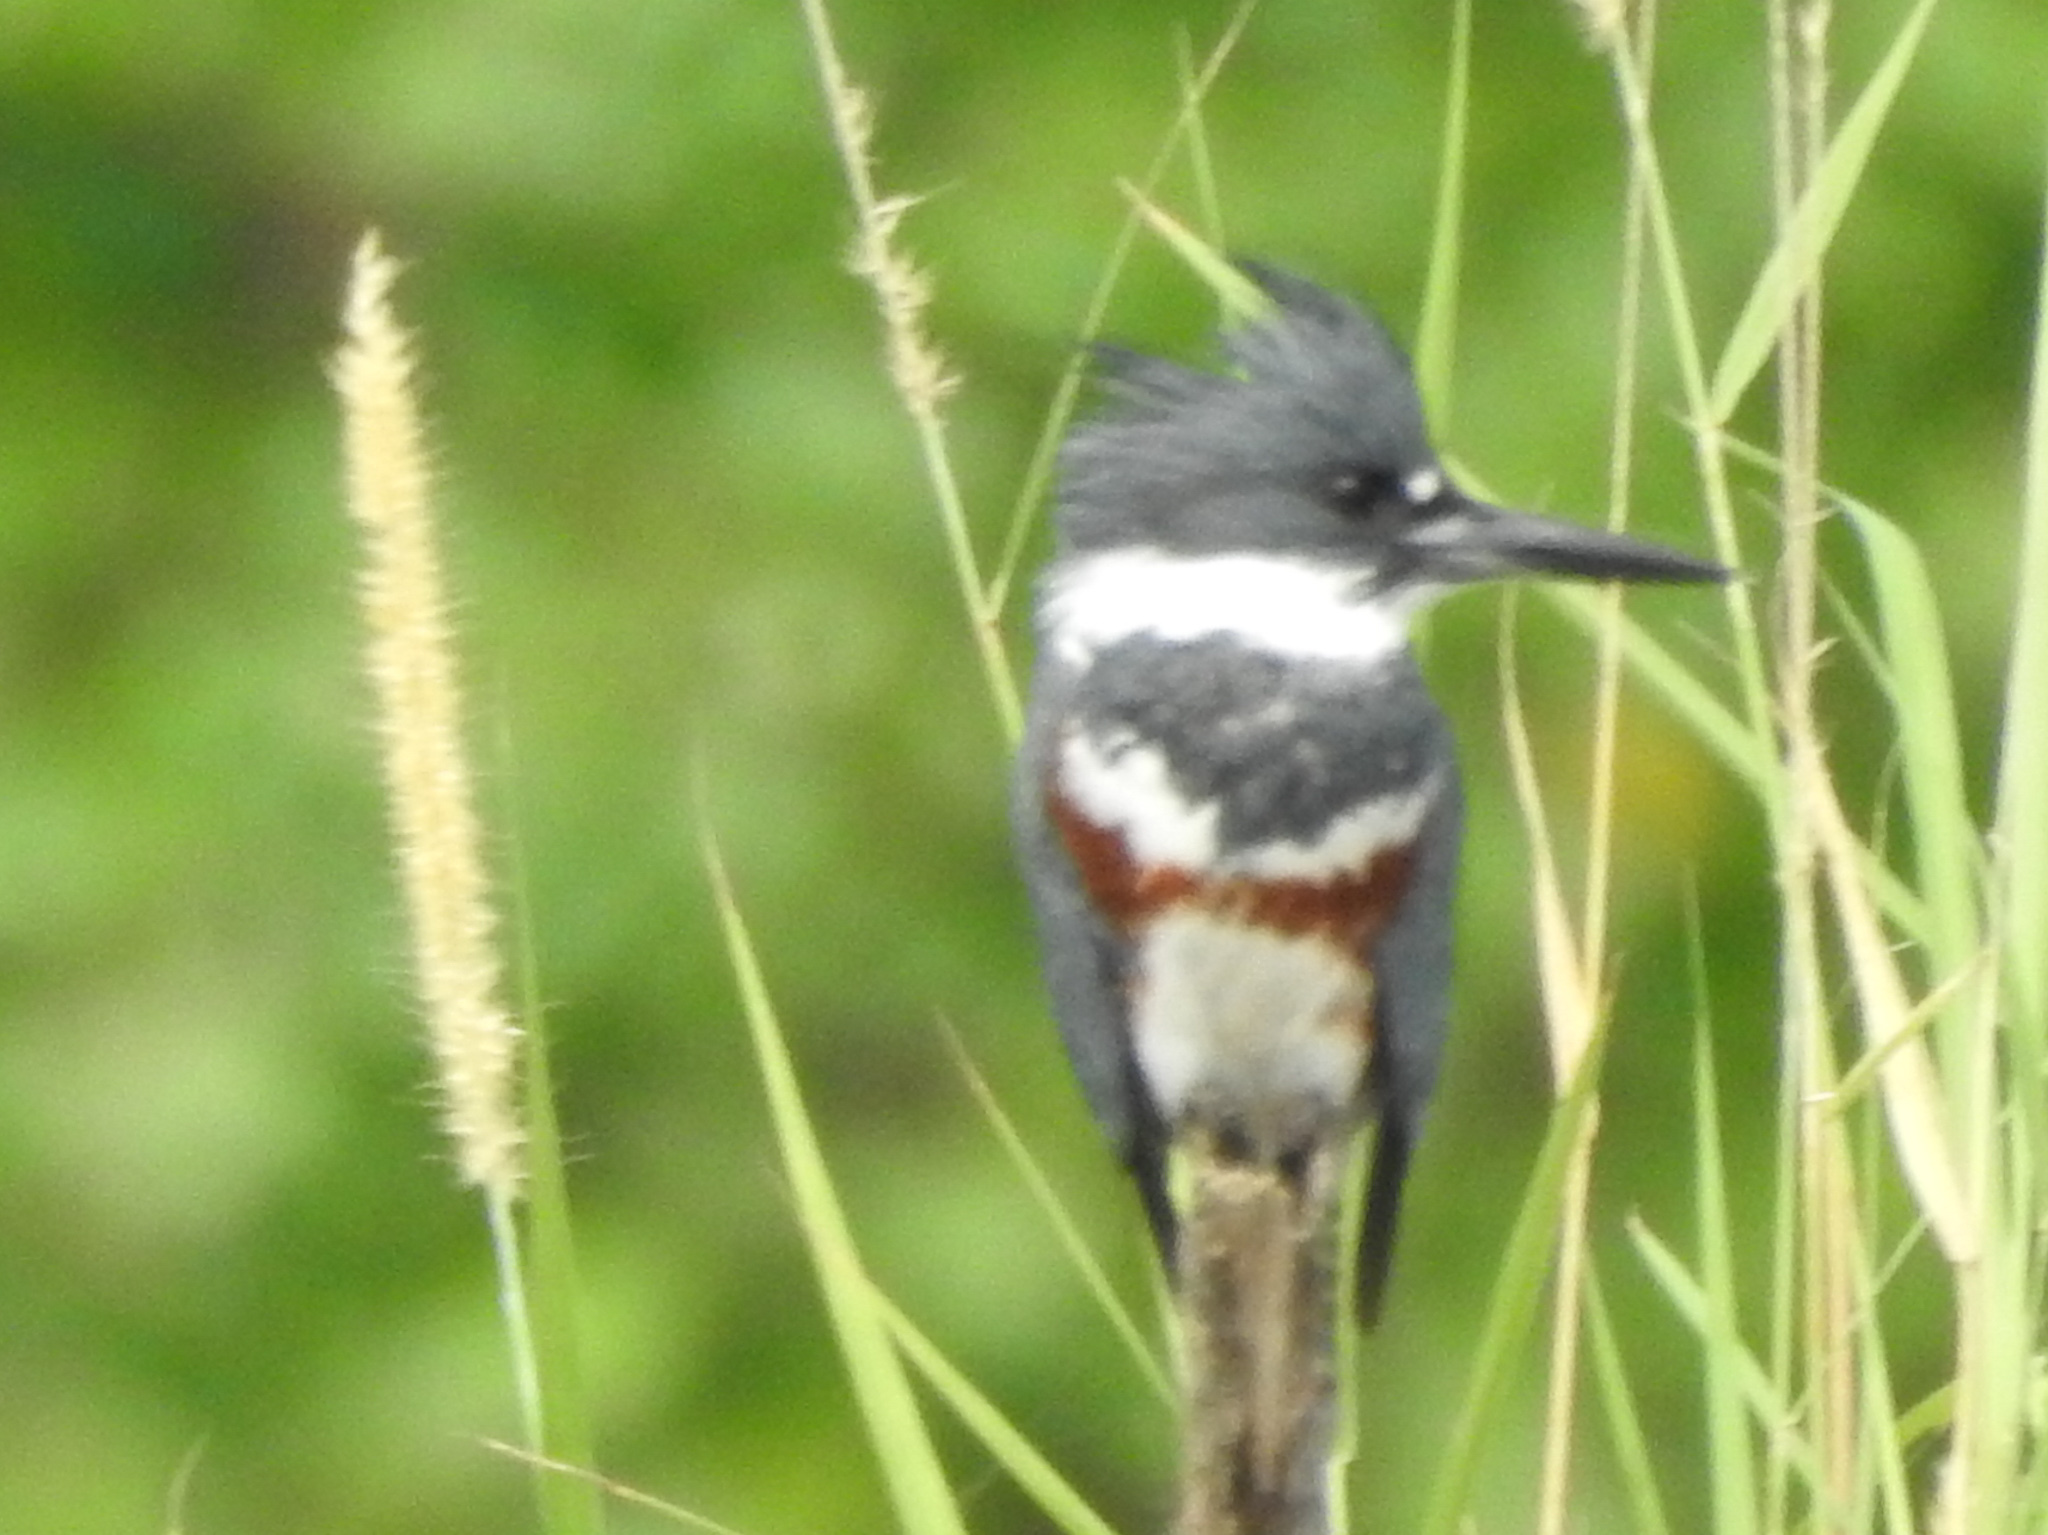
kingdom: Animalia
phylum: Chordata
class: Aves
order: Coraciiformes
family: Alcedinidae
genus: Megaceryle
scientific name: Megaceryle alcyon
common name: Belted kingfisher
